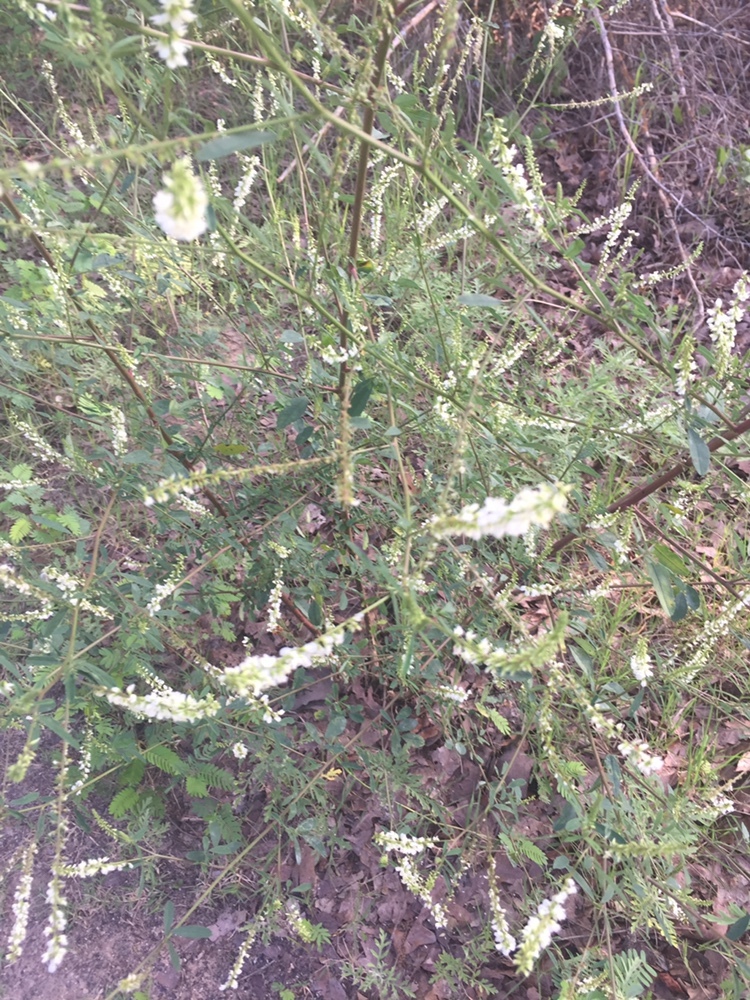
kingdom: Plantae
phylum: Tracheophyta
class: Magnoliopsida
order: Fabales
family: Fabaceae
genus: Melilotus
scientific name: Melilotus albus
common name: White melilot
